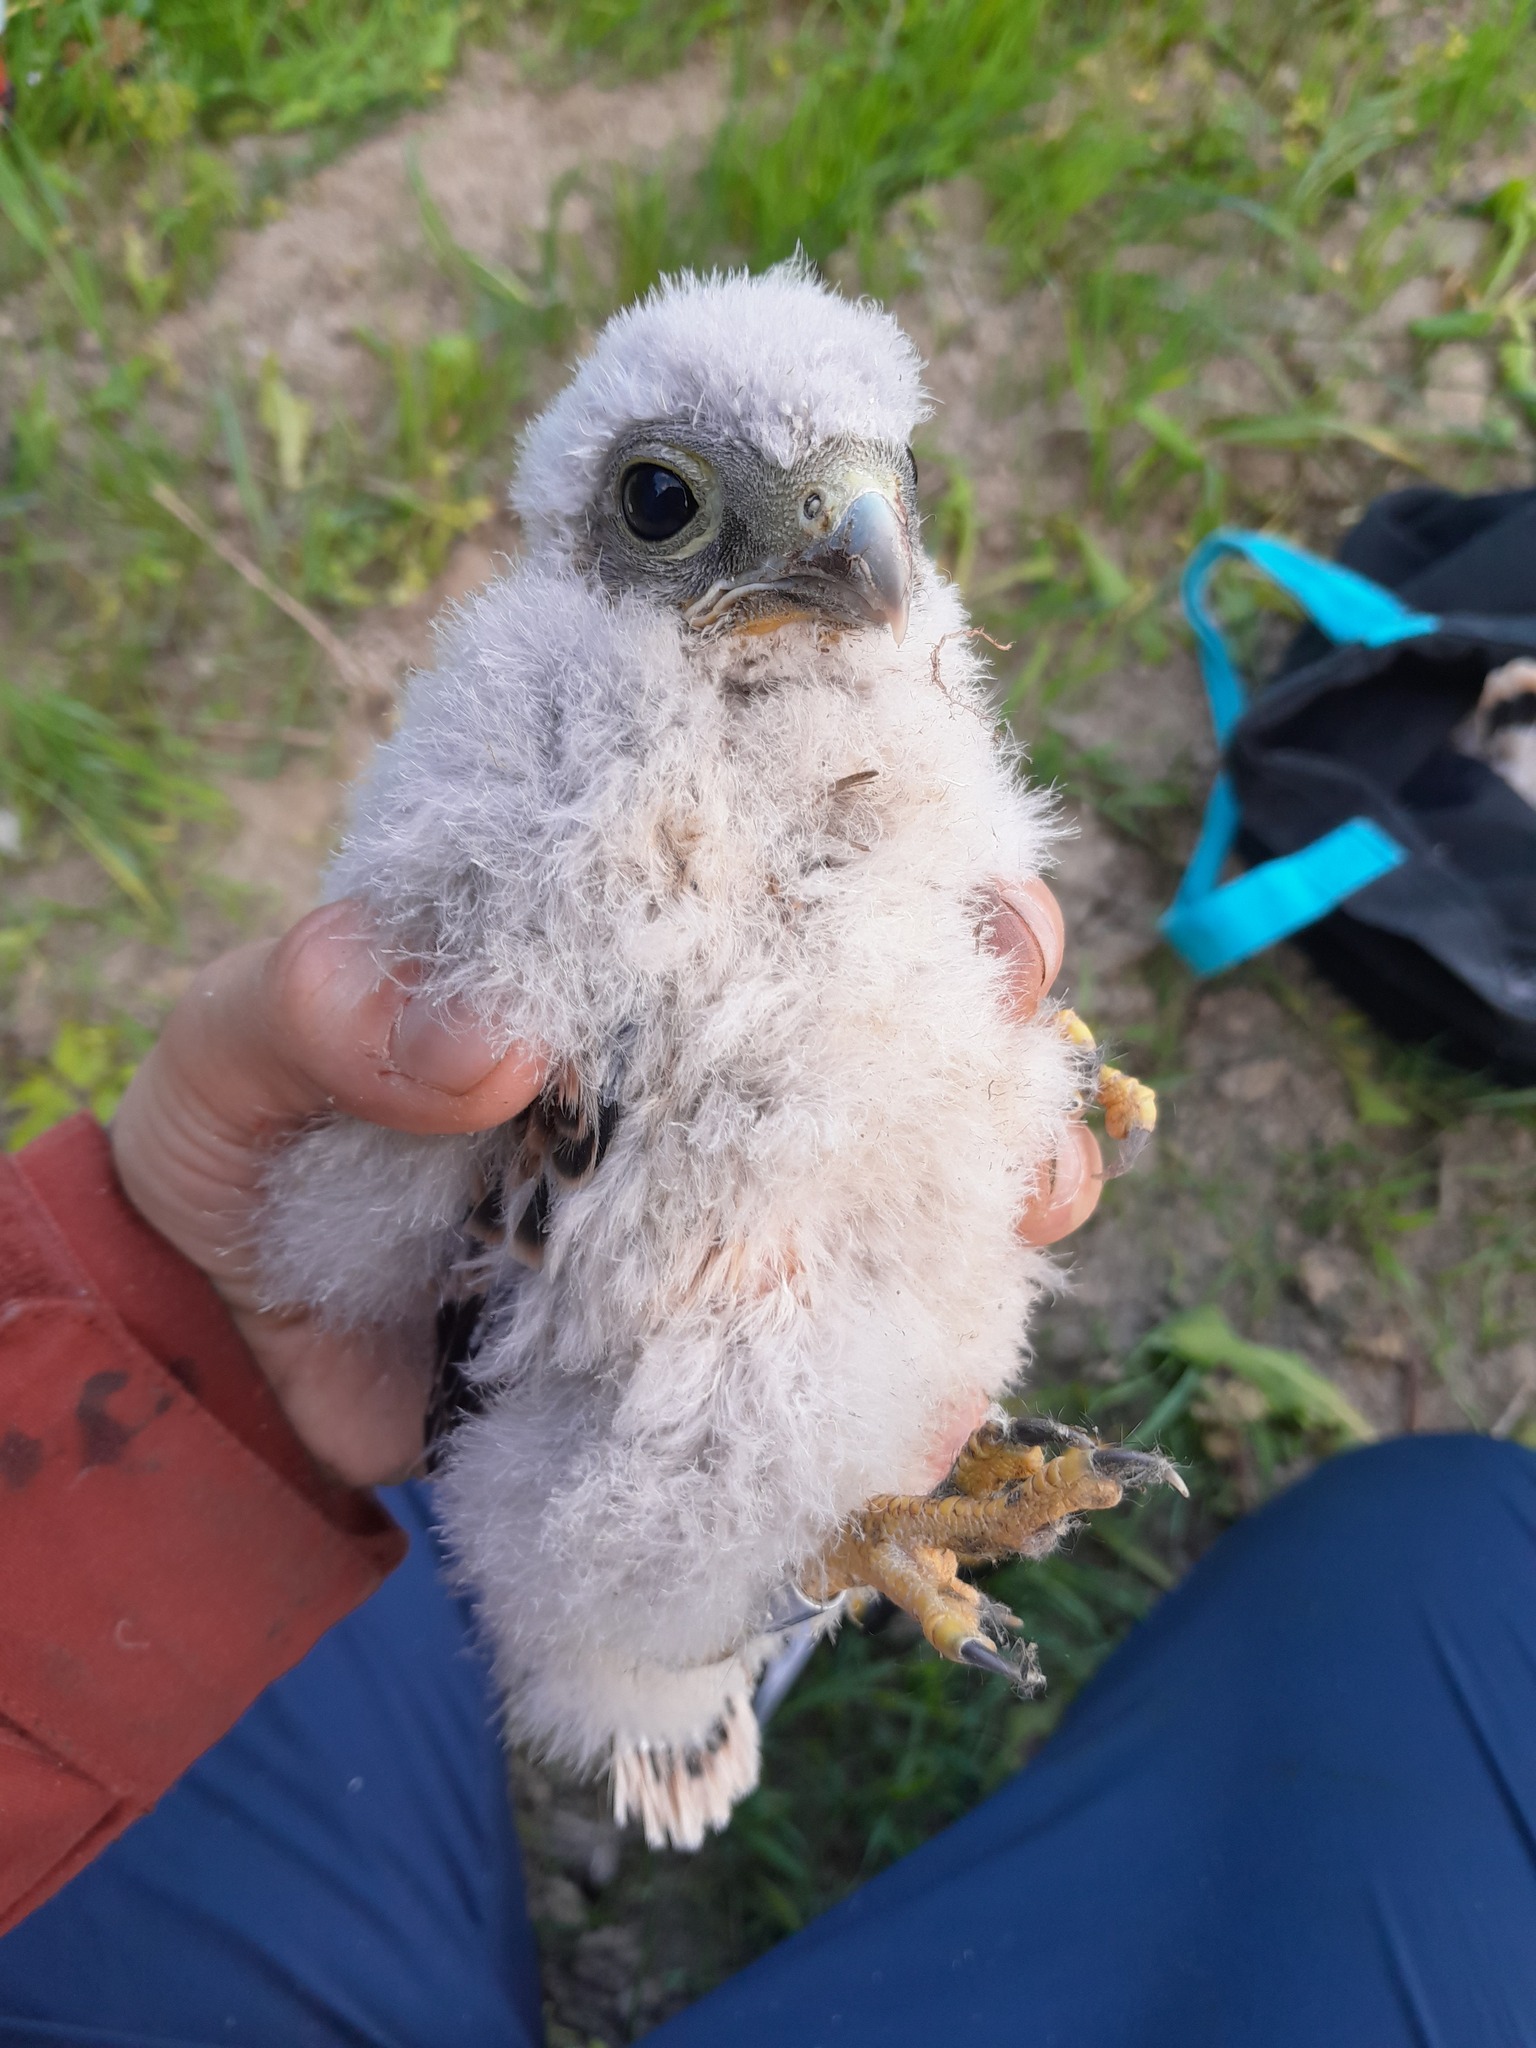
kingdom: Animalia
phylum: Chordata
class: Aves
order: Falconiformes
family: Falconidae
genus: Falco
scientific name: Falco tinnunculus
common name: Common kestrel
